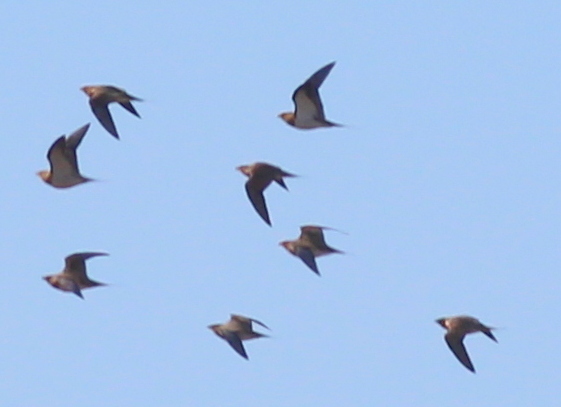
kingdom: Animalia
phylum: Chordata
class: Aves
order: Pteroclidiformes
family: Pteroclididae
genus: Pterocles
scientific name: Pterocles alchata
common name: Pin-tailed sandgrouse
